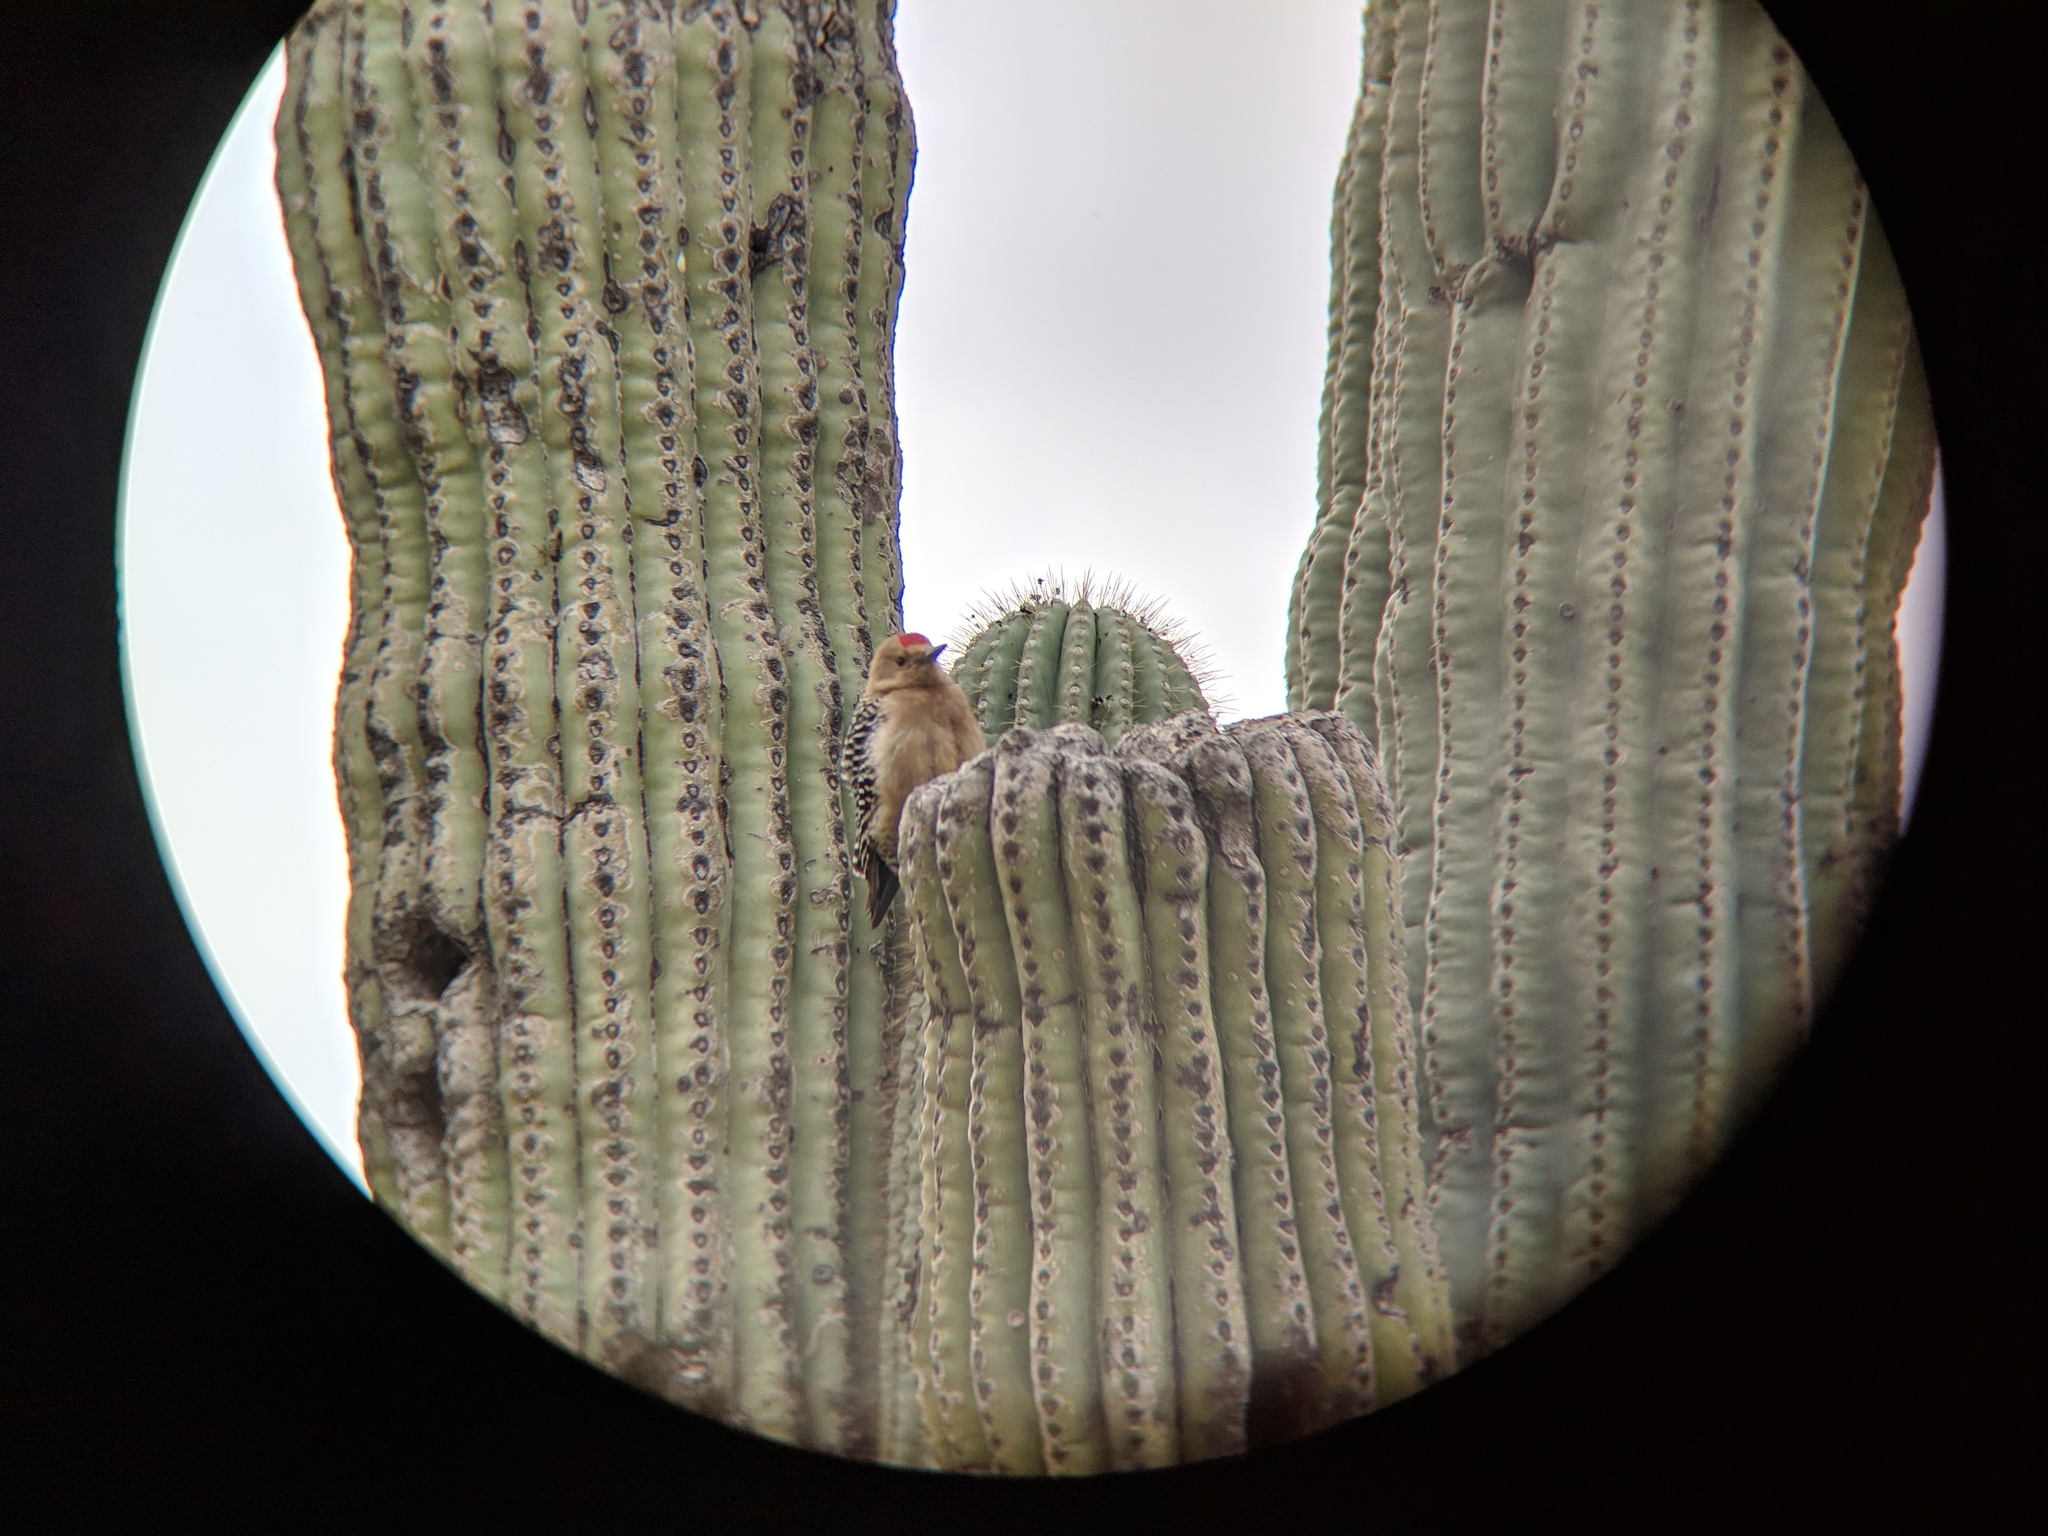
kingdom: Animalia
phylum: Chordata
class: Aves
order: Piciformes
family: Picidae
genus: Melanerpes
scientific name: Melanerpes uropygialis
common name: Gila woodpecker
